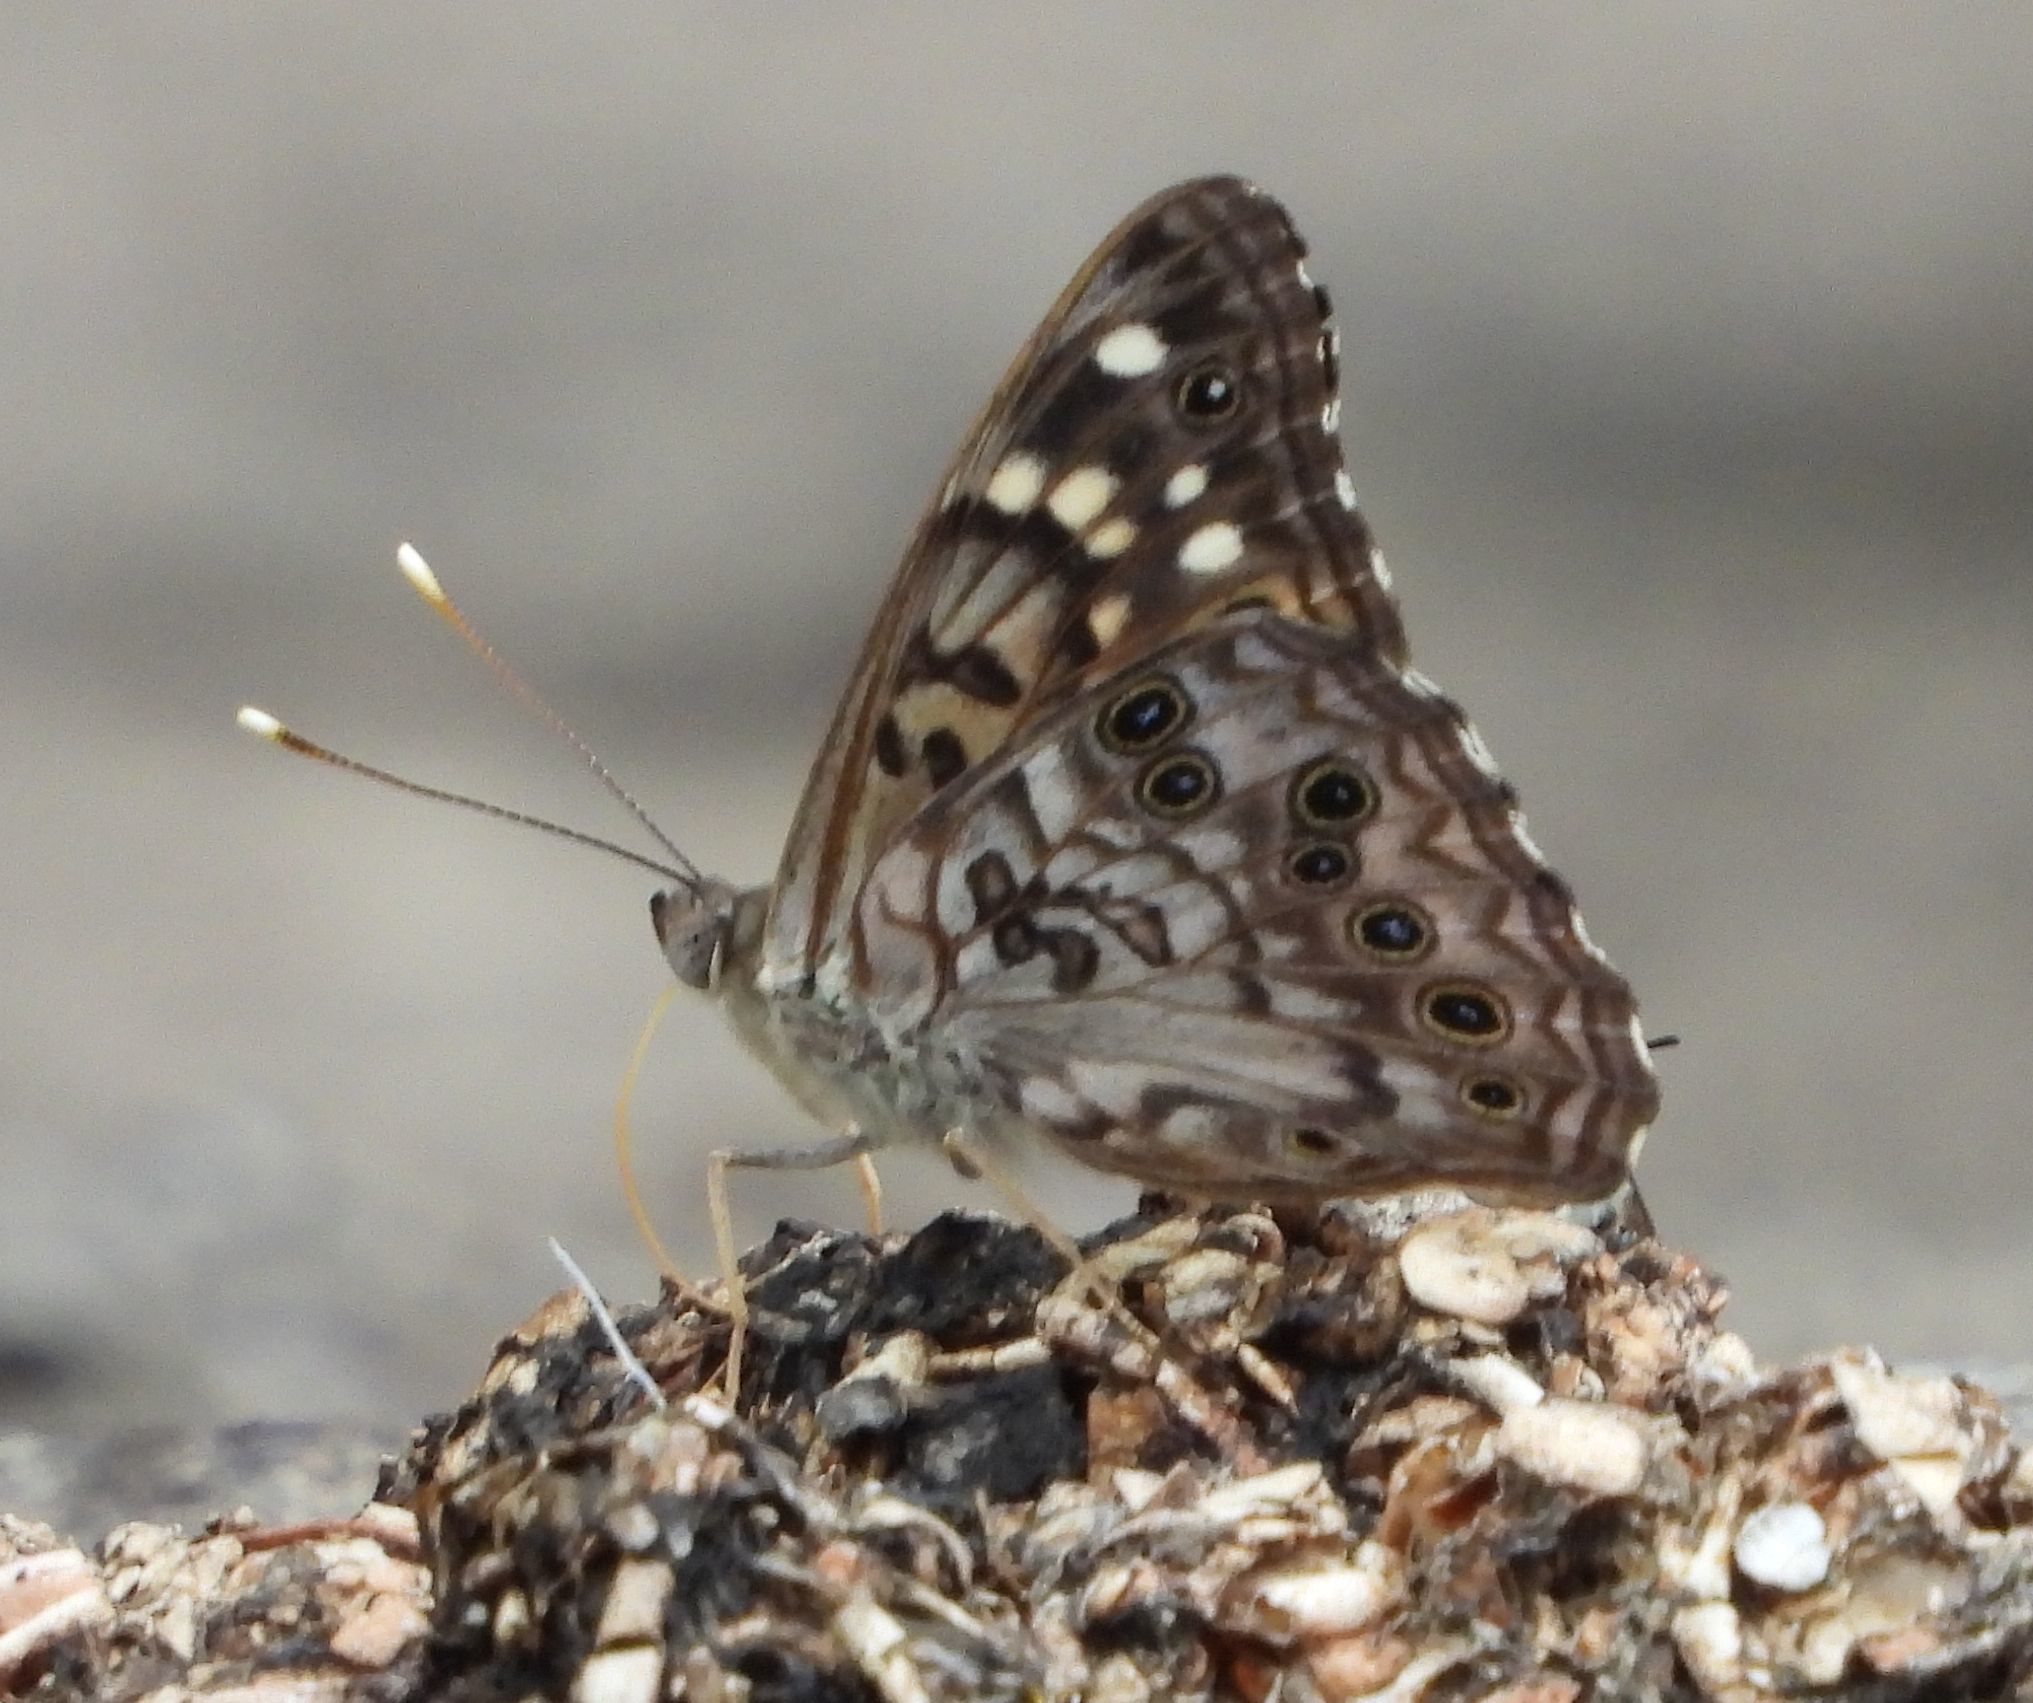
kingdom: Animalia
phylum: Arthropoda
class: Insecta
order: Lepidoptera
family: Nymphalidae
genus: Asterocampa
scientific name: Asterocampa celtis
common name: Hackberry emperor
